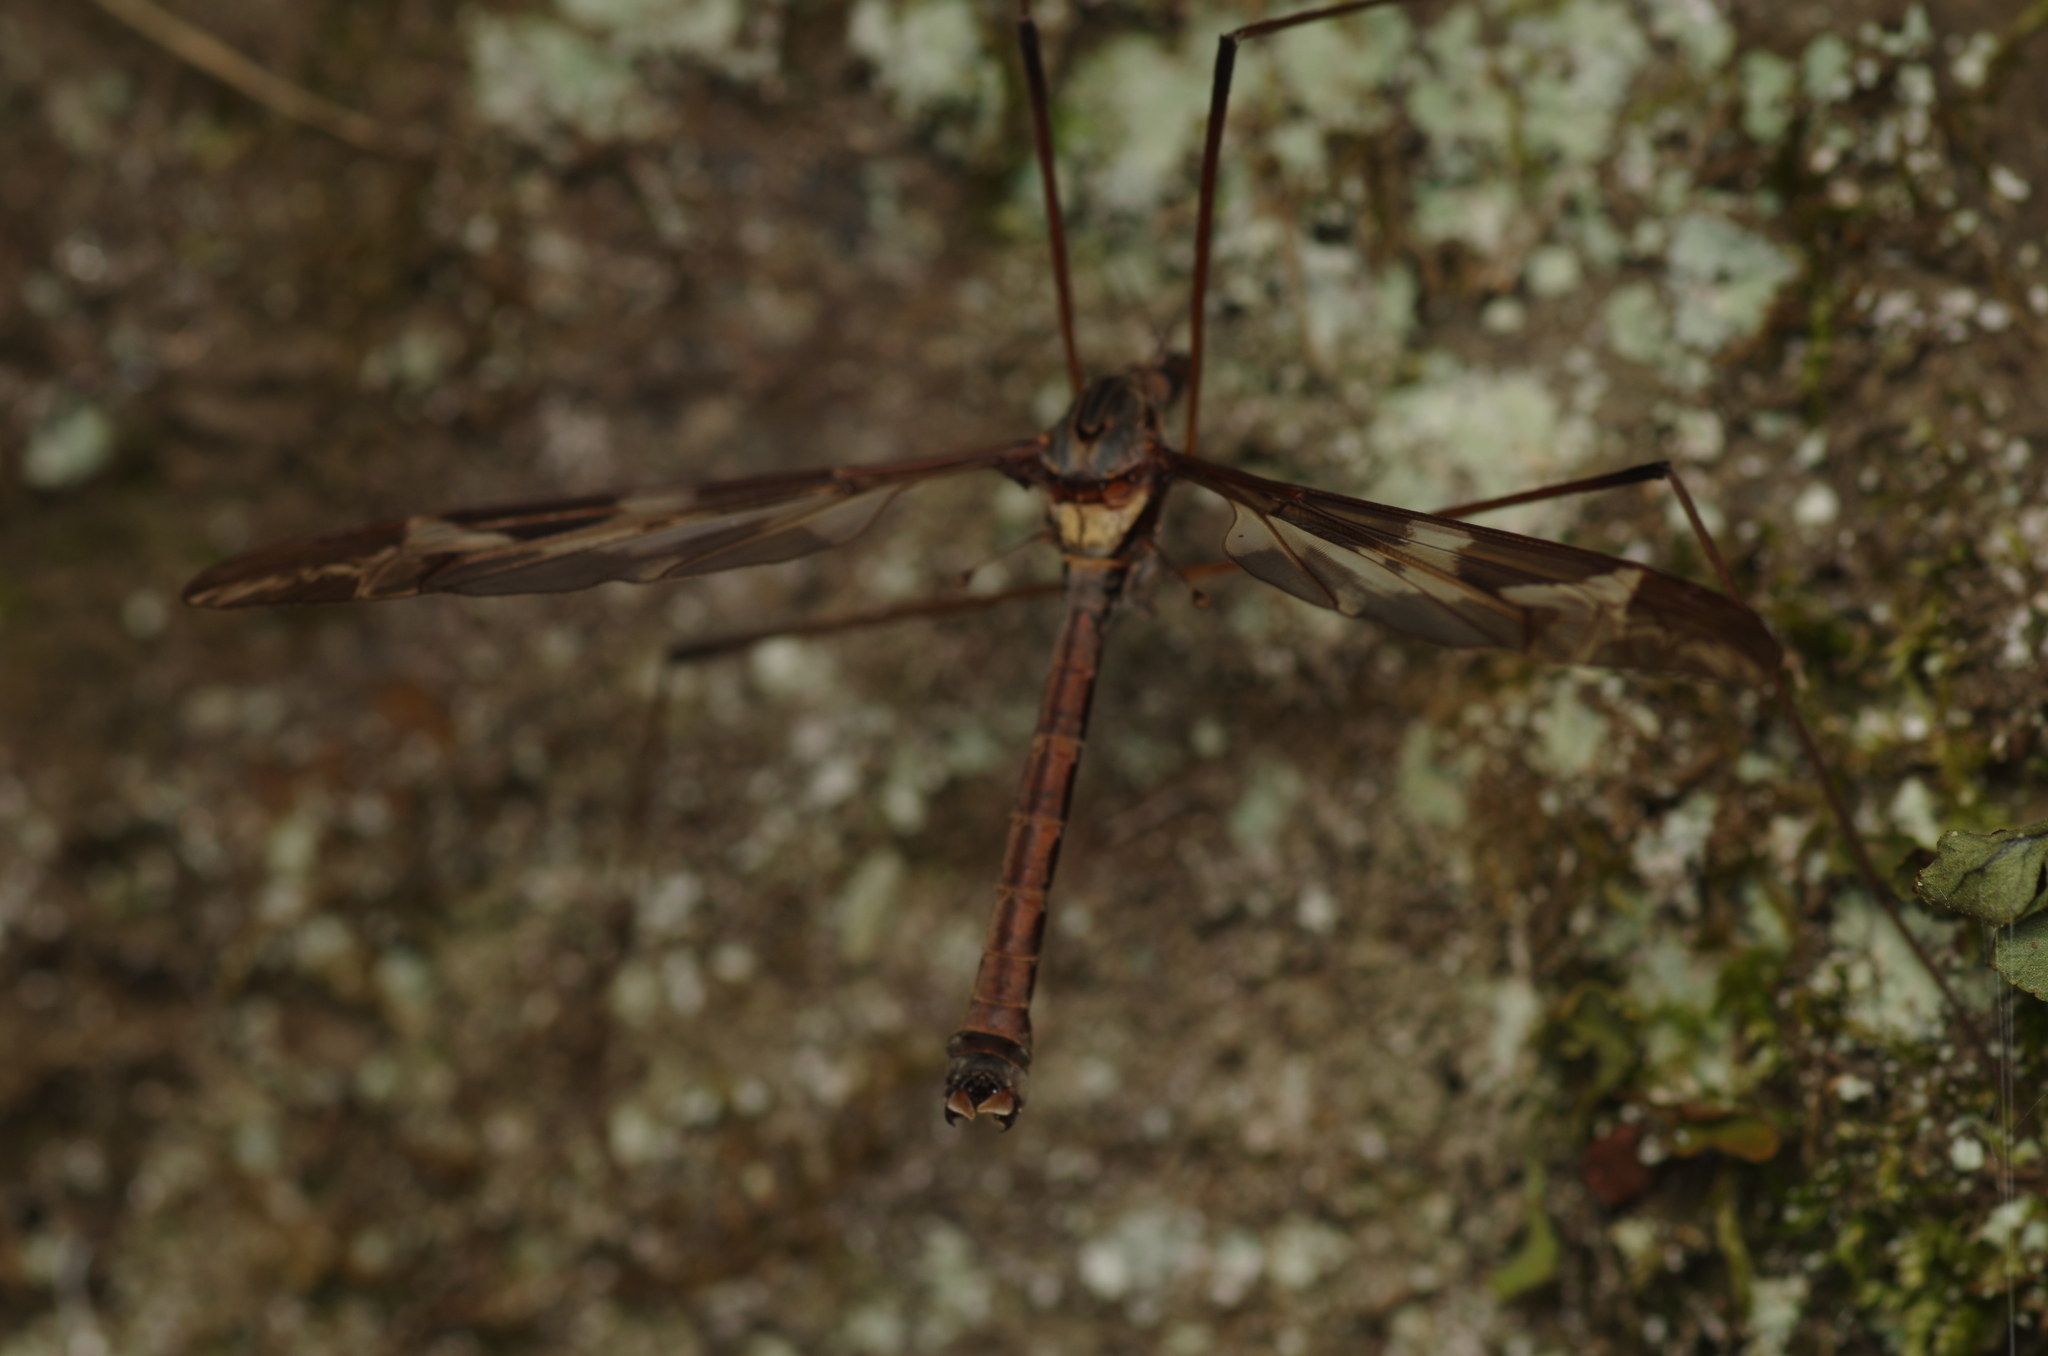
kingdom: Animalia
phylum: Arthropoda
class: Insecta
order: Diptera
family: Tipulidae
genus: Tipula
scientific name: Tipula maxima
